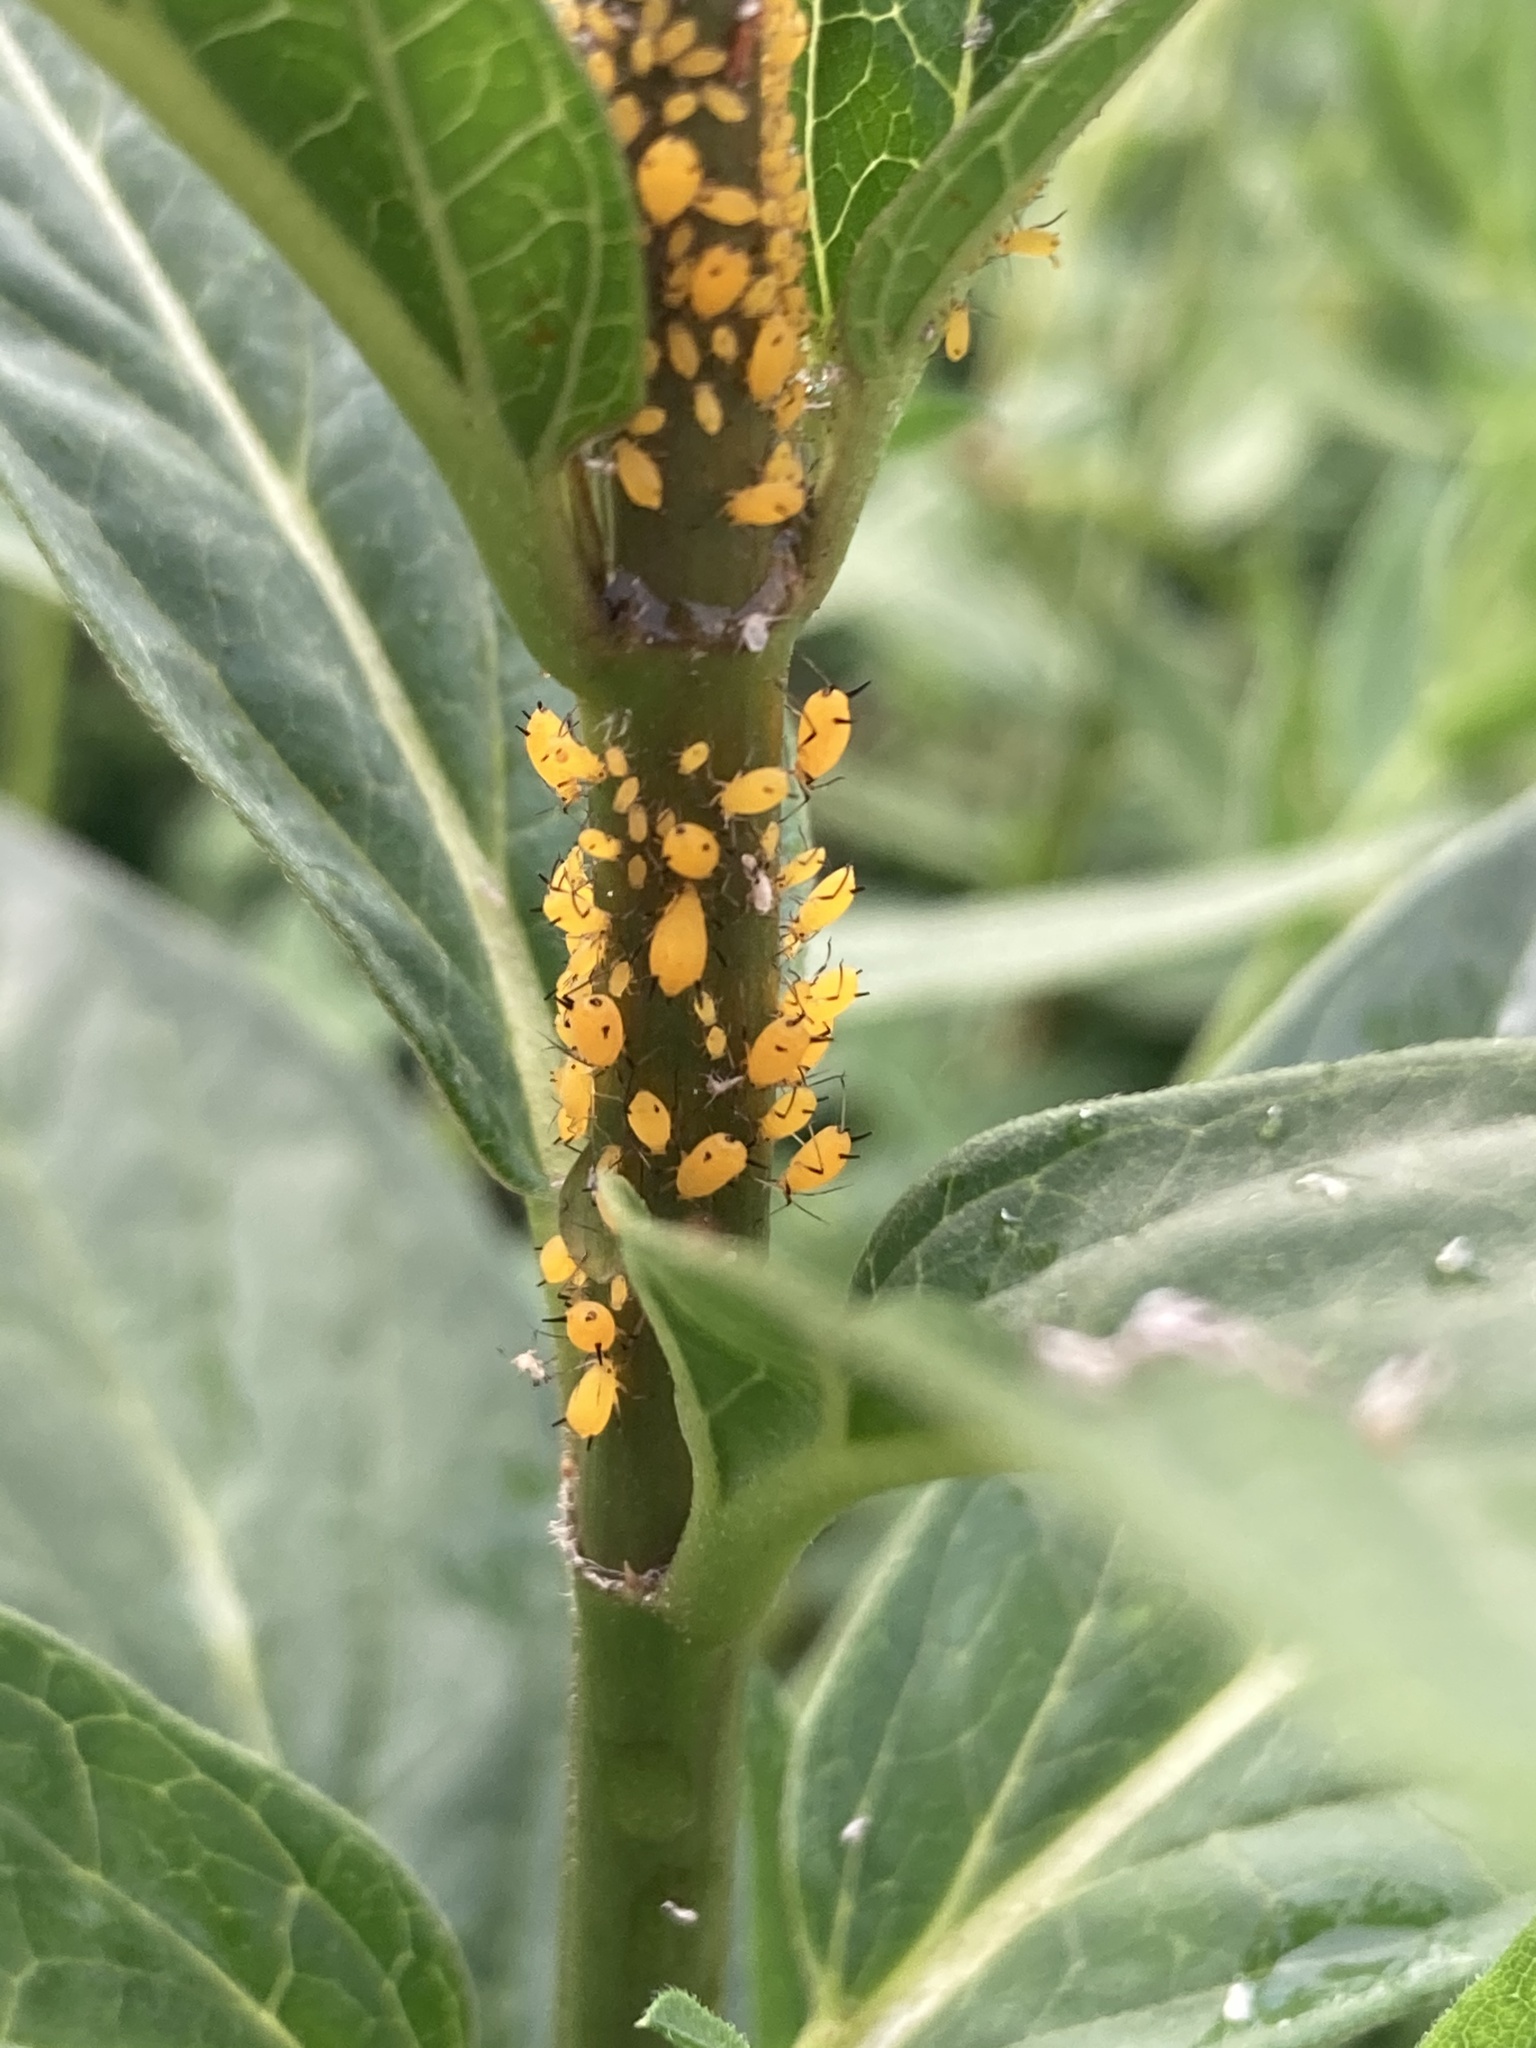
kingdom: Animalia
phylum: Arthropoda
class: Insecta
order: Hemiptera
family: Aphididae
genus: Aphis
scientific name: Aphis nerii
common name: Oleander aphid
